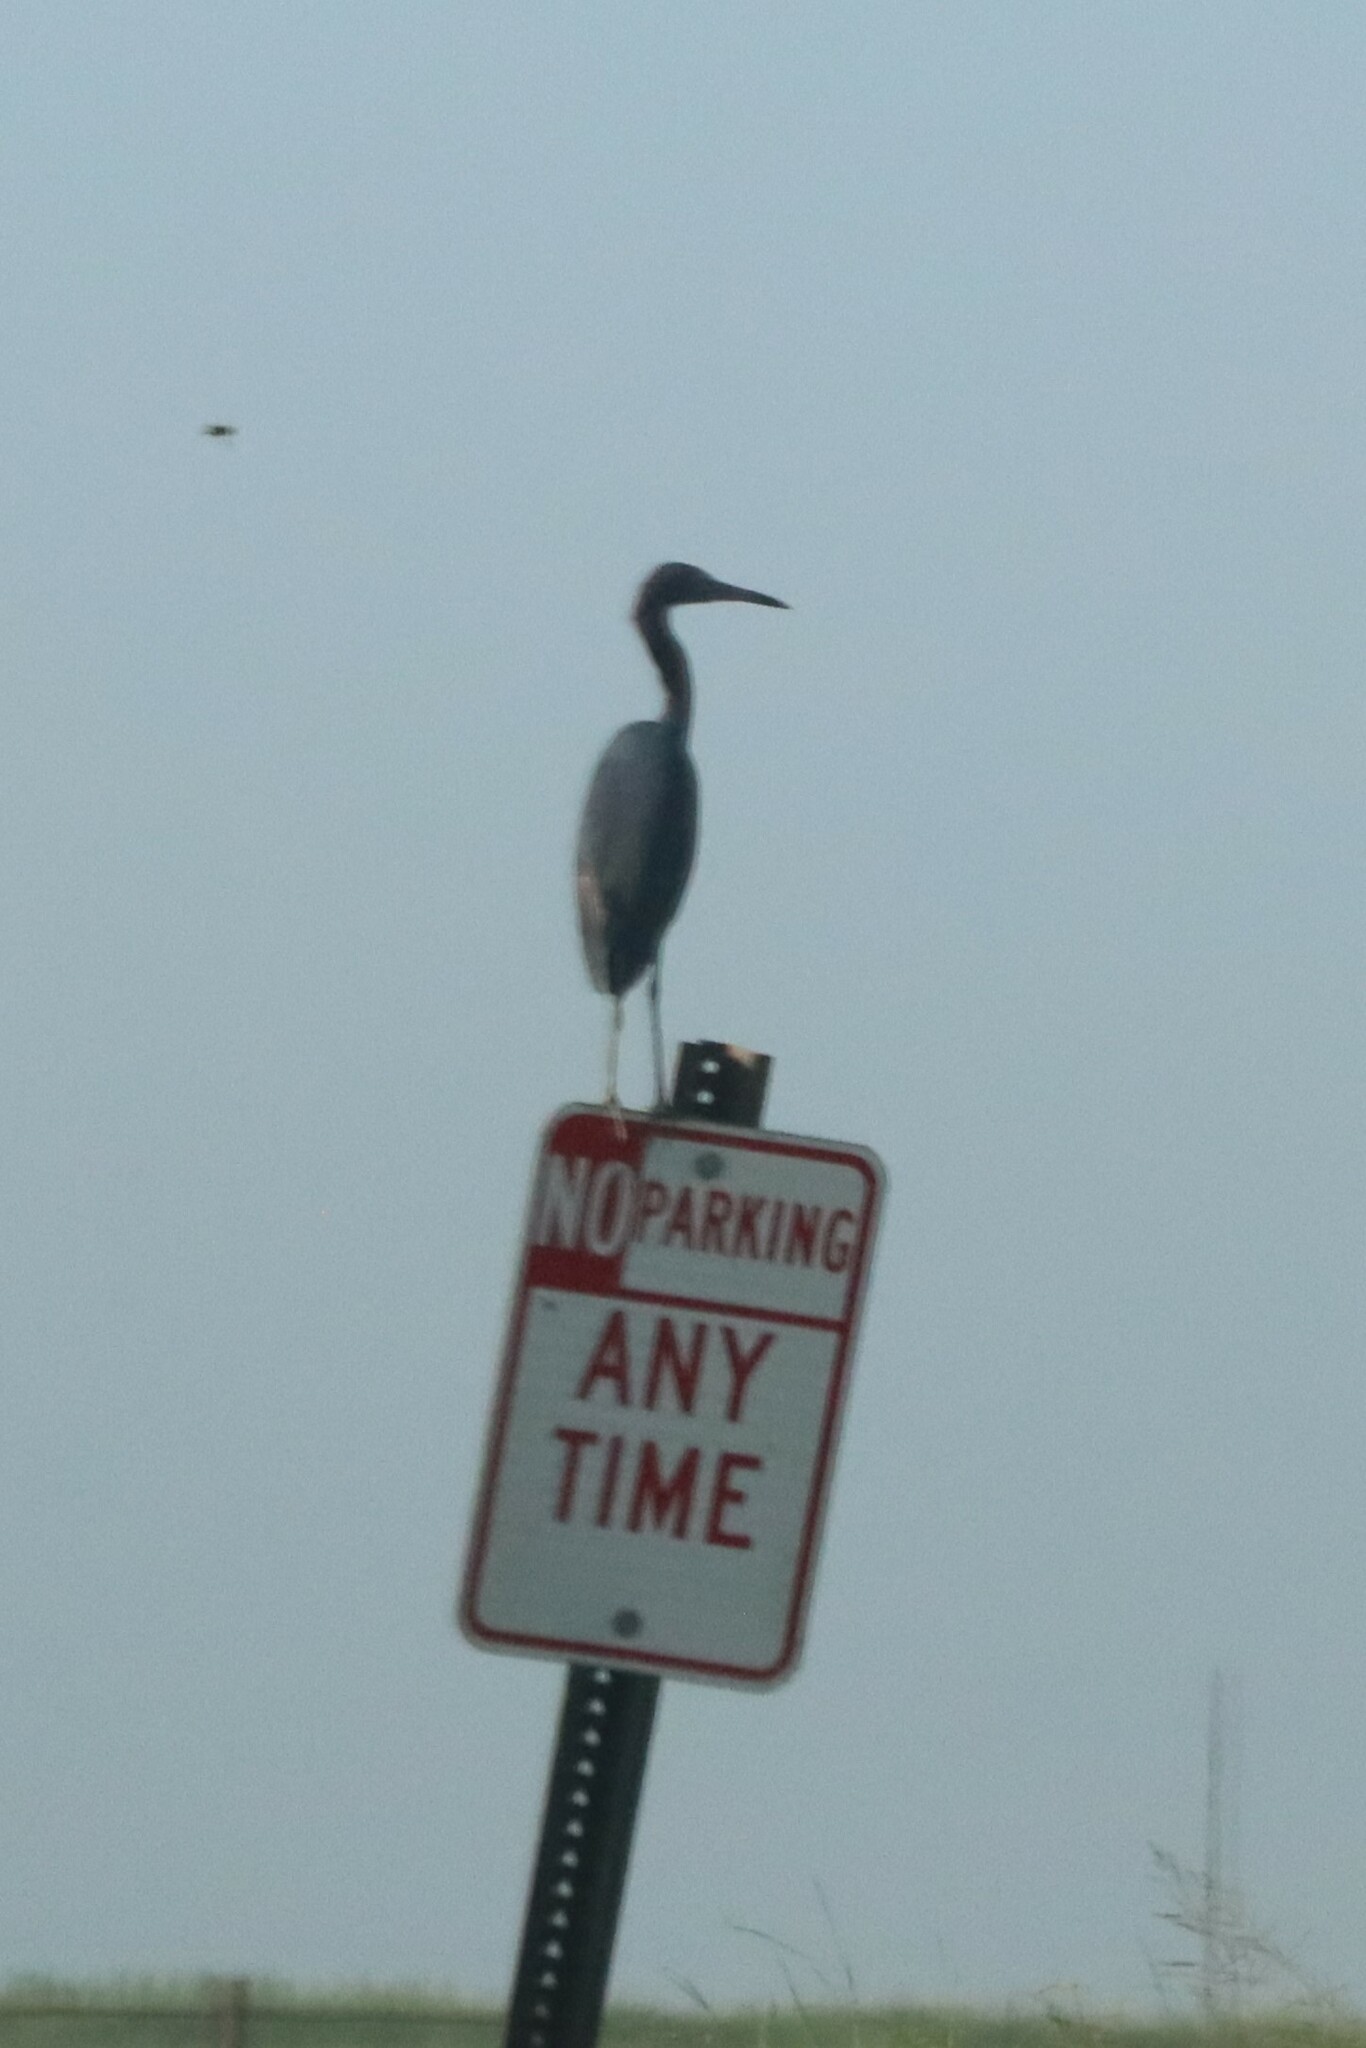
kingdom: Animalia
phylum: Chordata
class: Aves
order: Pelecaniformes
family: Ardeidae
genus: Egretta
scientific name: Egretta caerulea
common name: Little blue heron
